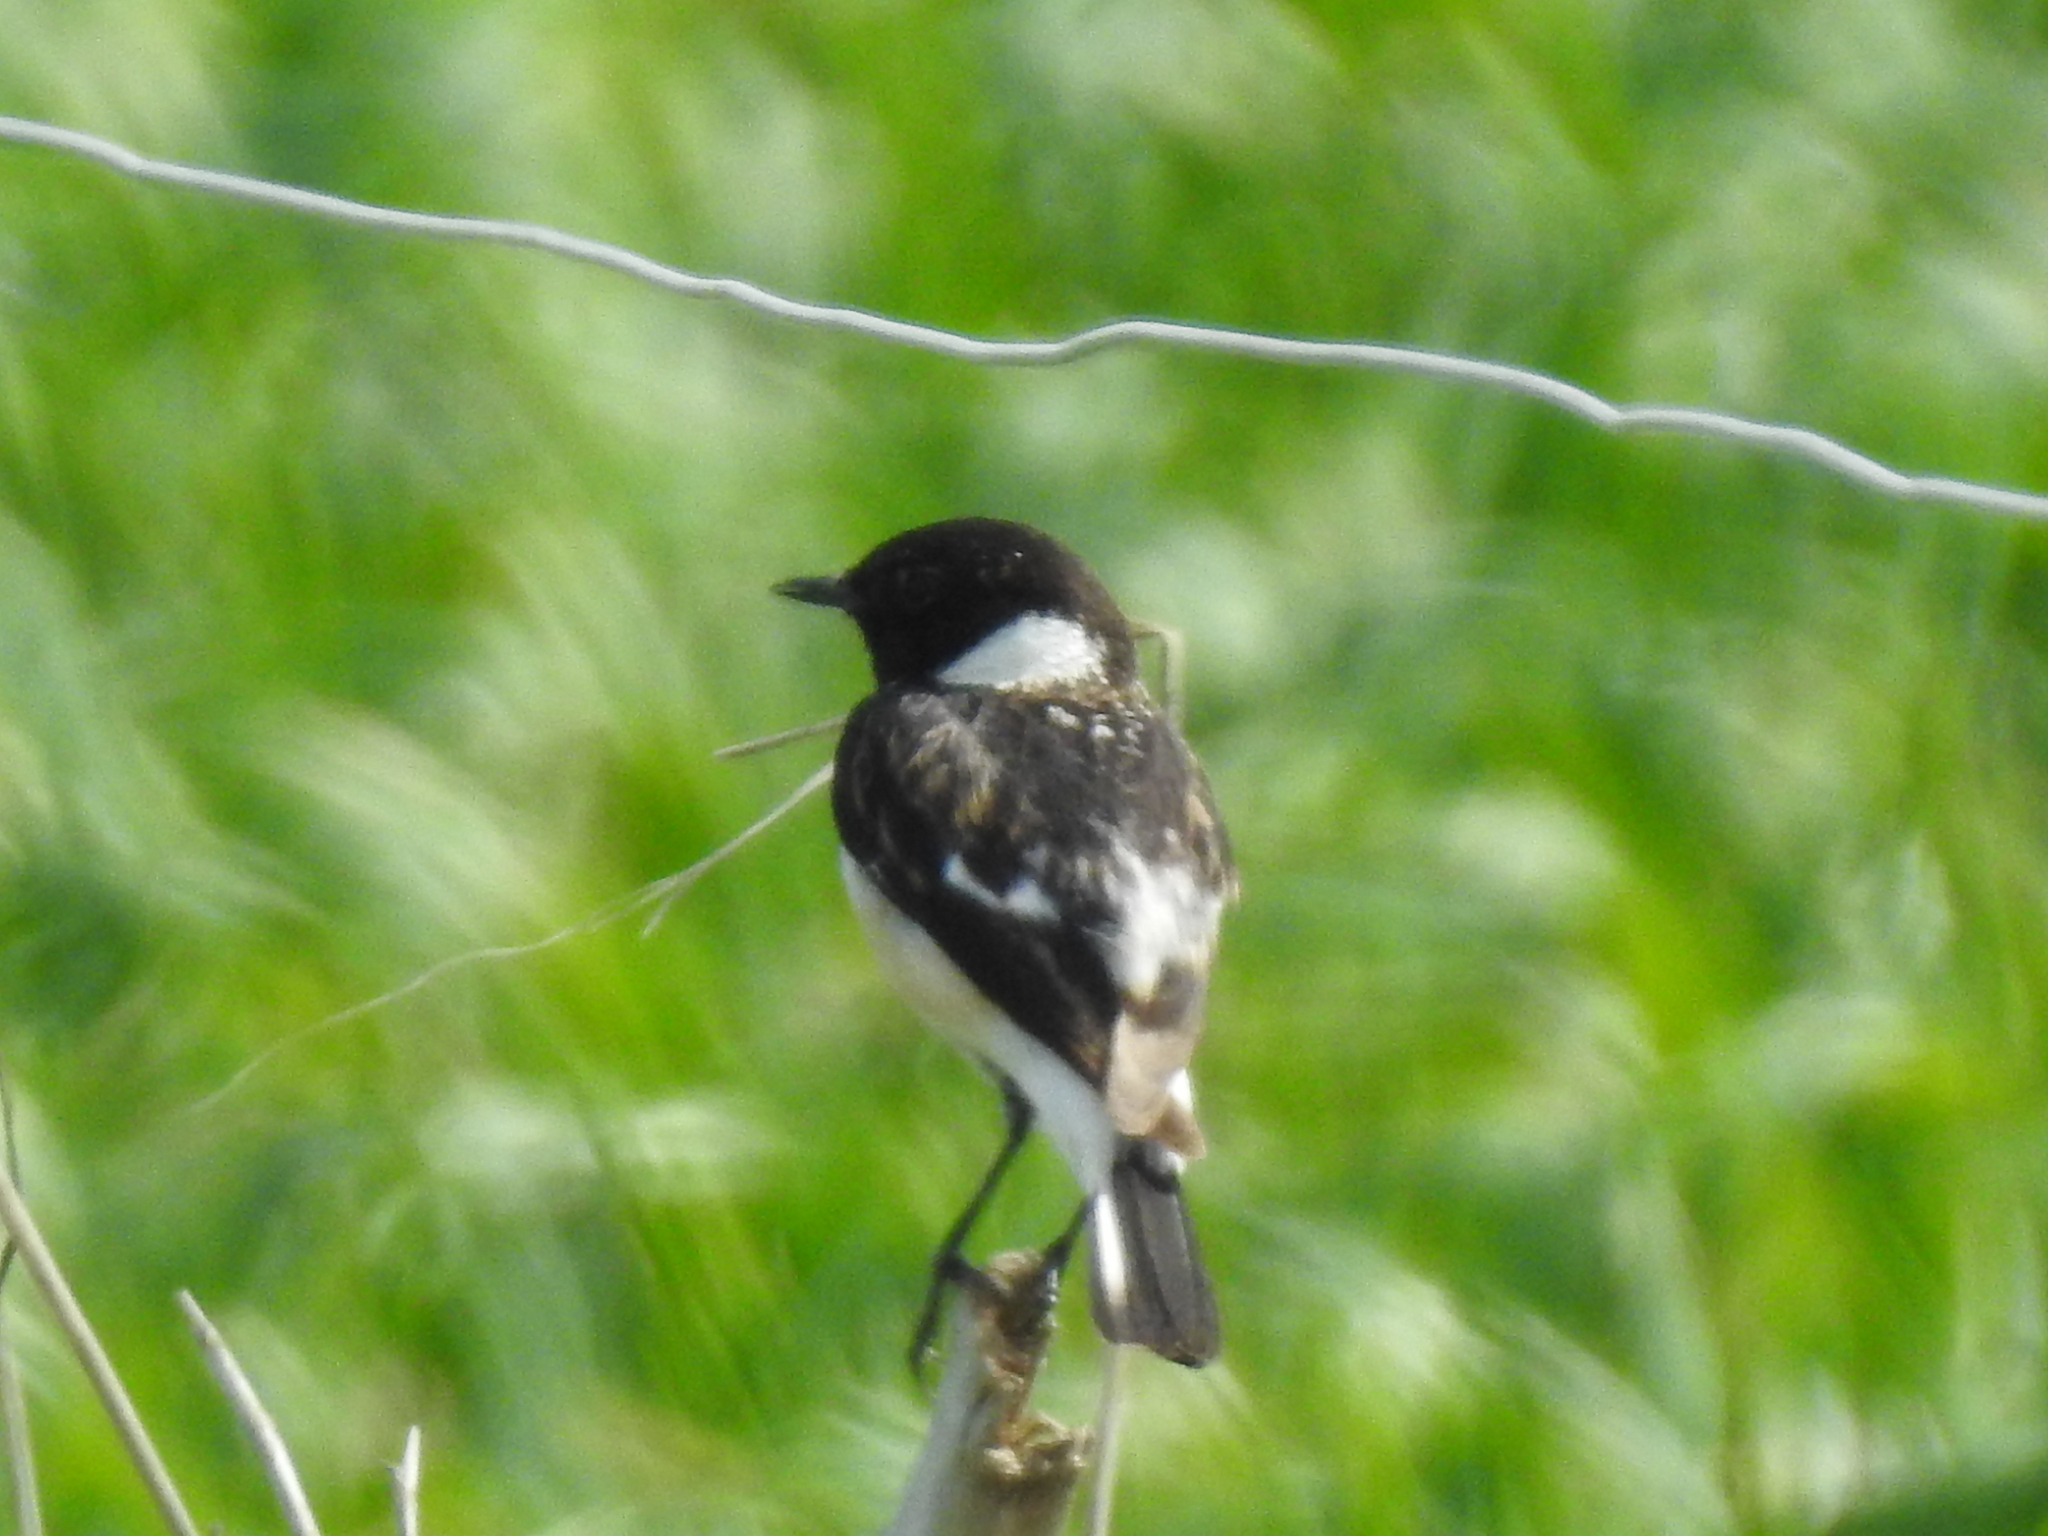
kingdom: Animalia
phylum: Chordata
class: Aves
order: Passeriformes
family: Muscicapidae
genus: Saxicola
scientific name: Saxicola maurus
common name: Siberian stonechat
